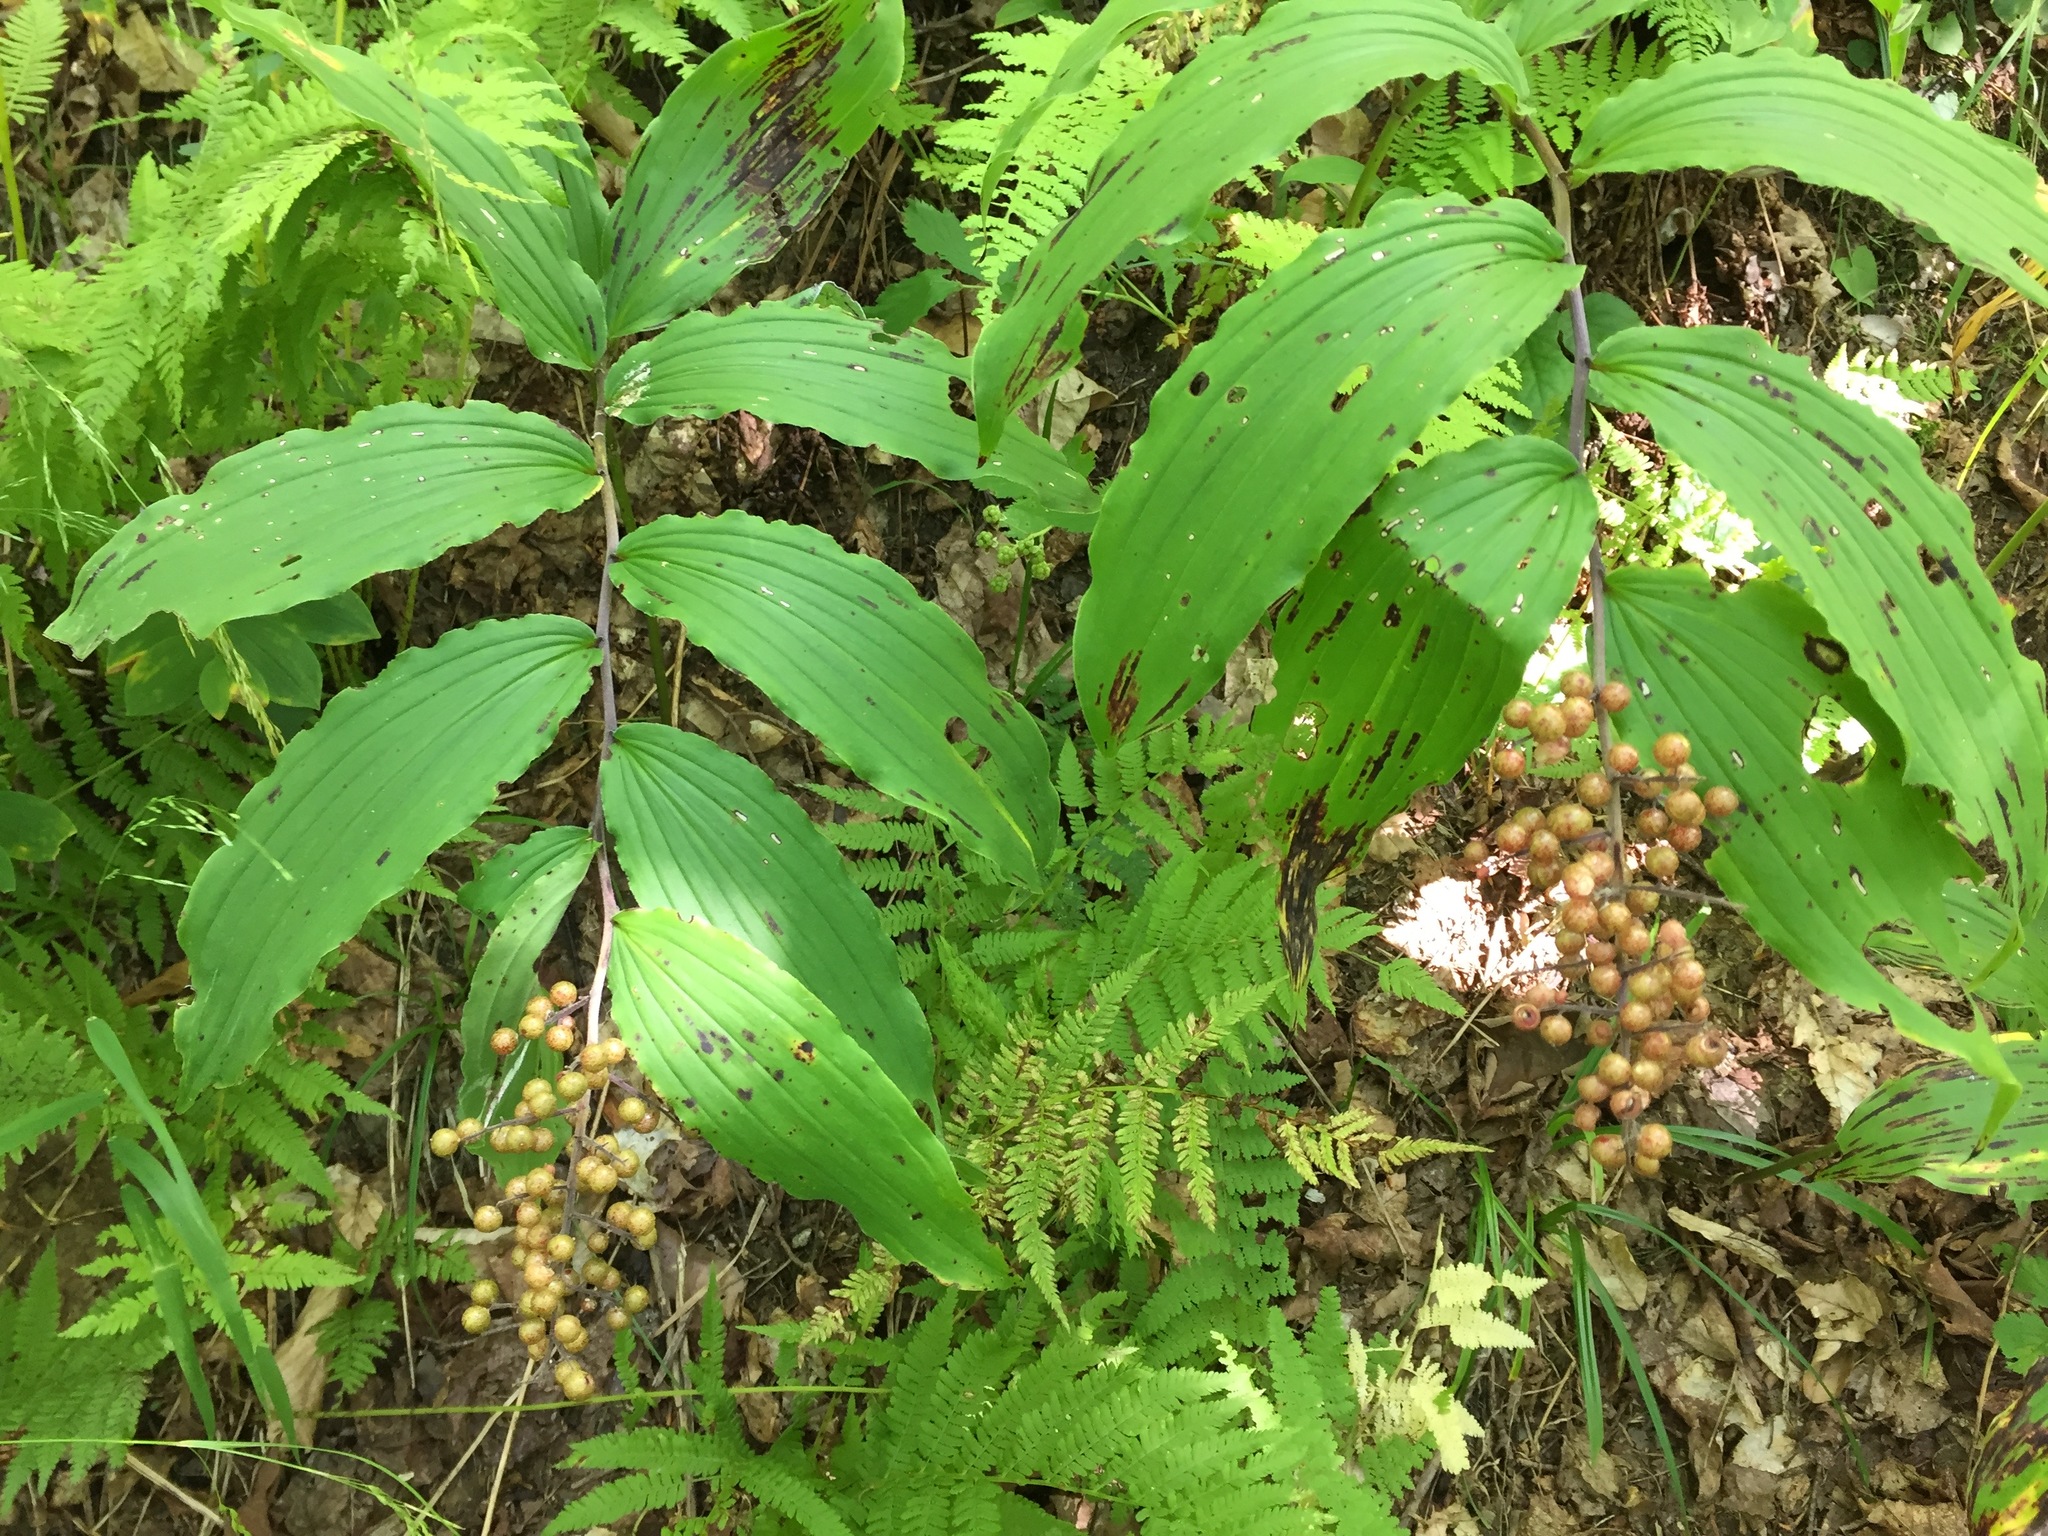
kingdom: Plantae
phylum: Tracheophyta
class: Liliopsida
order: Asparagales
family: Asparagaceae
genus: Maianthemum
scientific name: Maianthemum racemosum
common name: False spikenard
